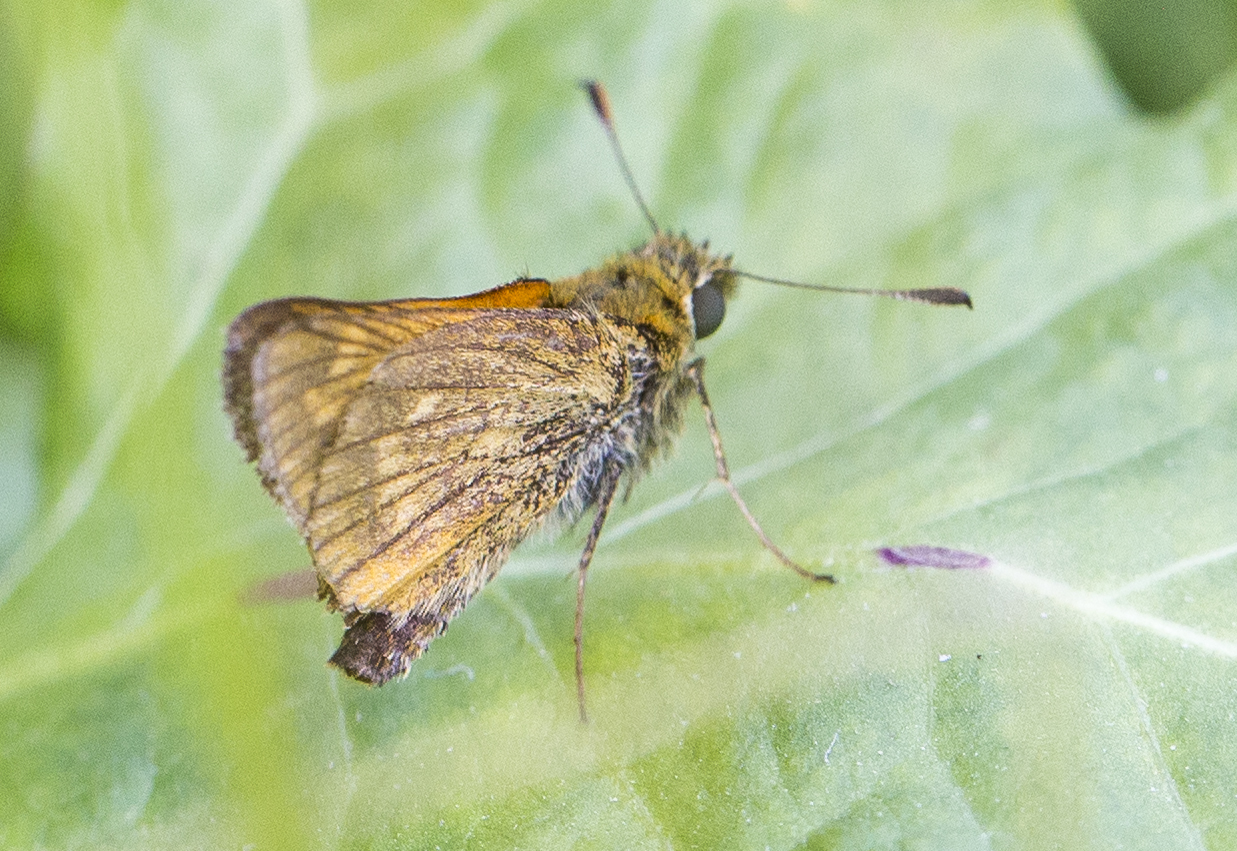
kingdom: Animalia
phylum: Arthropoda
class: Insecta
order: Lepidoptera
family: Hesperiidae
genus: Ochlodes
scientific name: Ochlodes venata
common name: Large skipper
